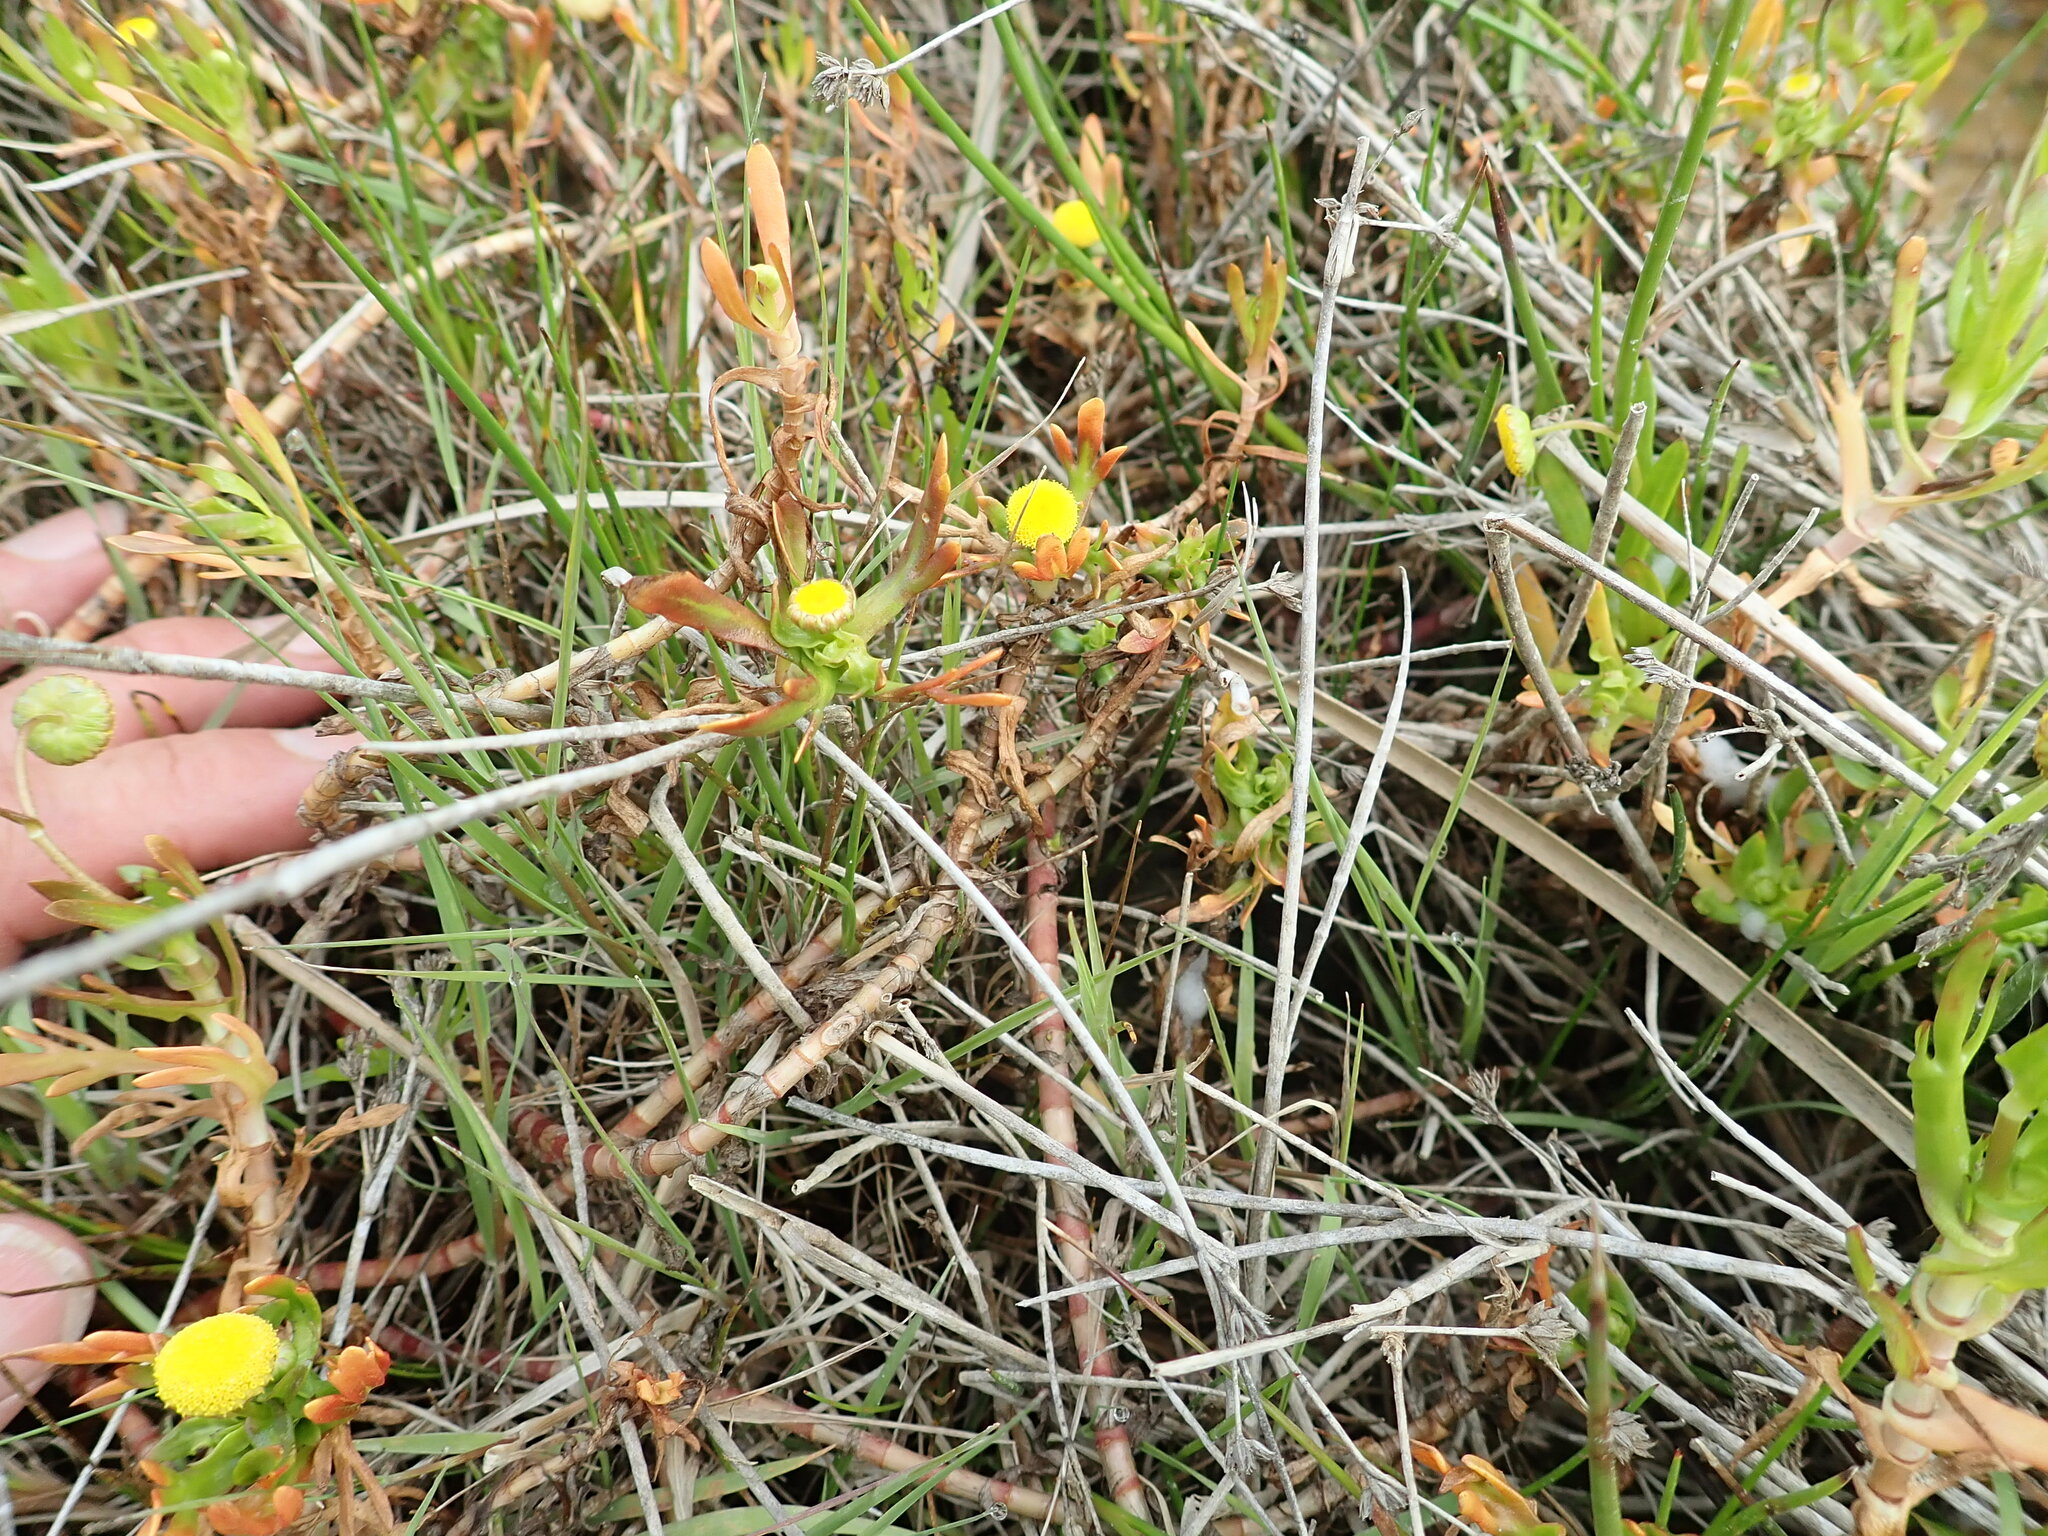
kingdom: Plantae
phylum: Tracheophyta
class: Magnoliopsida
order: Asterales
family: Asteraceae
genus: Cotula
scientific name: Cotula coronopifolia
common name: Buttonweed
